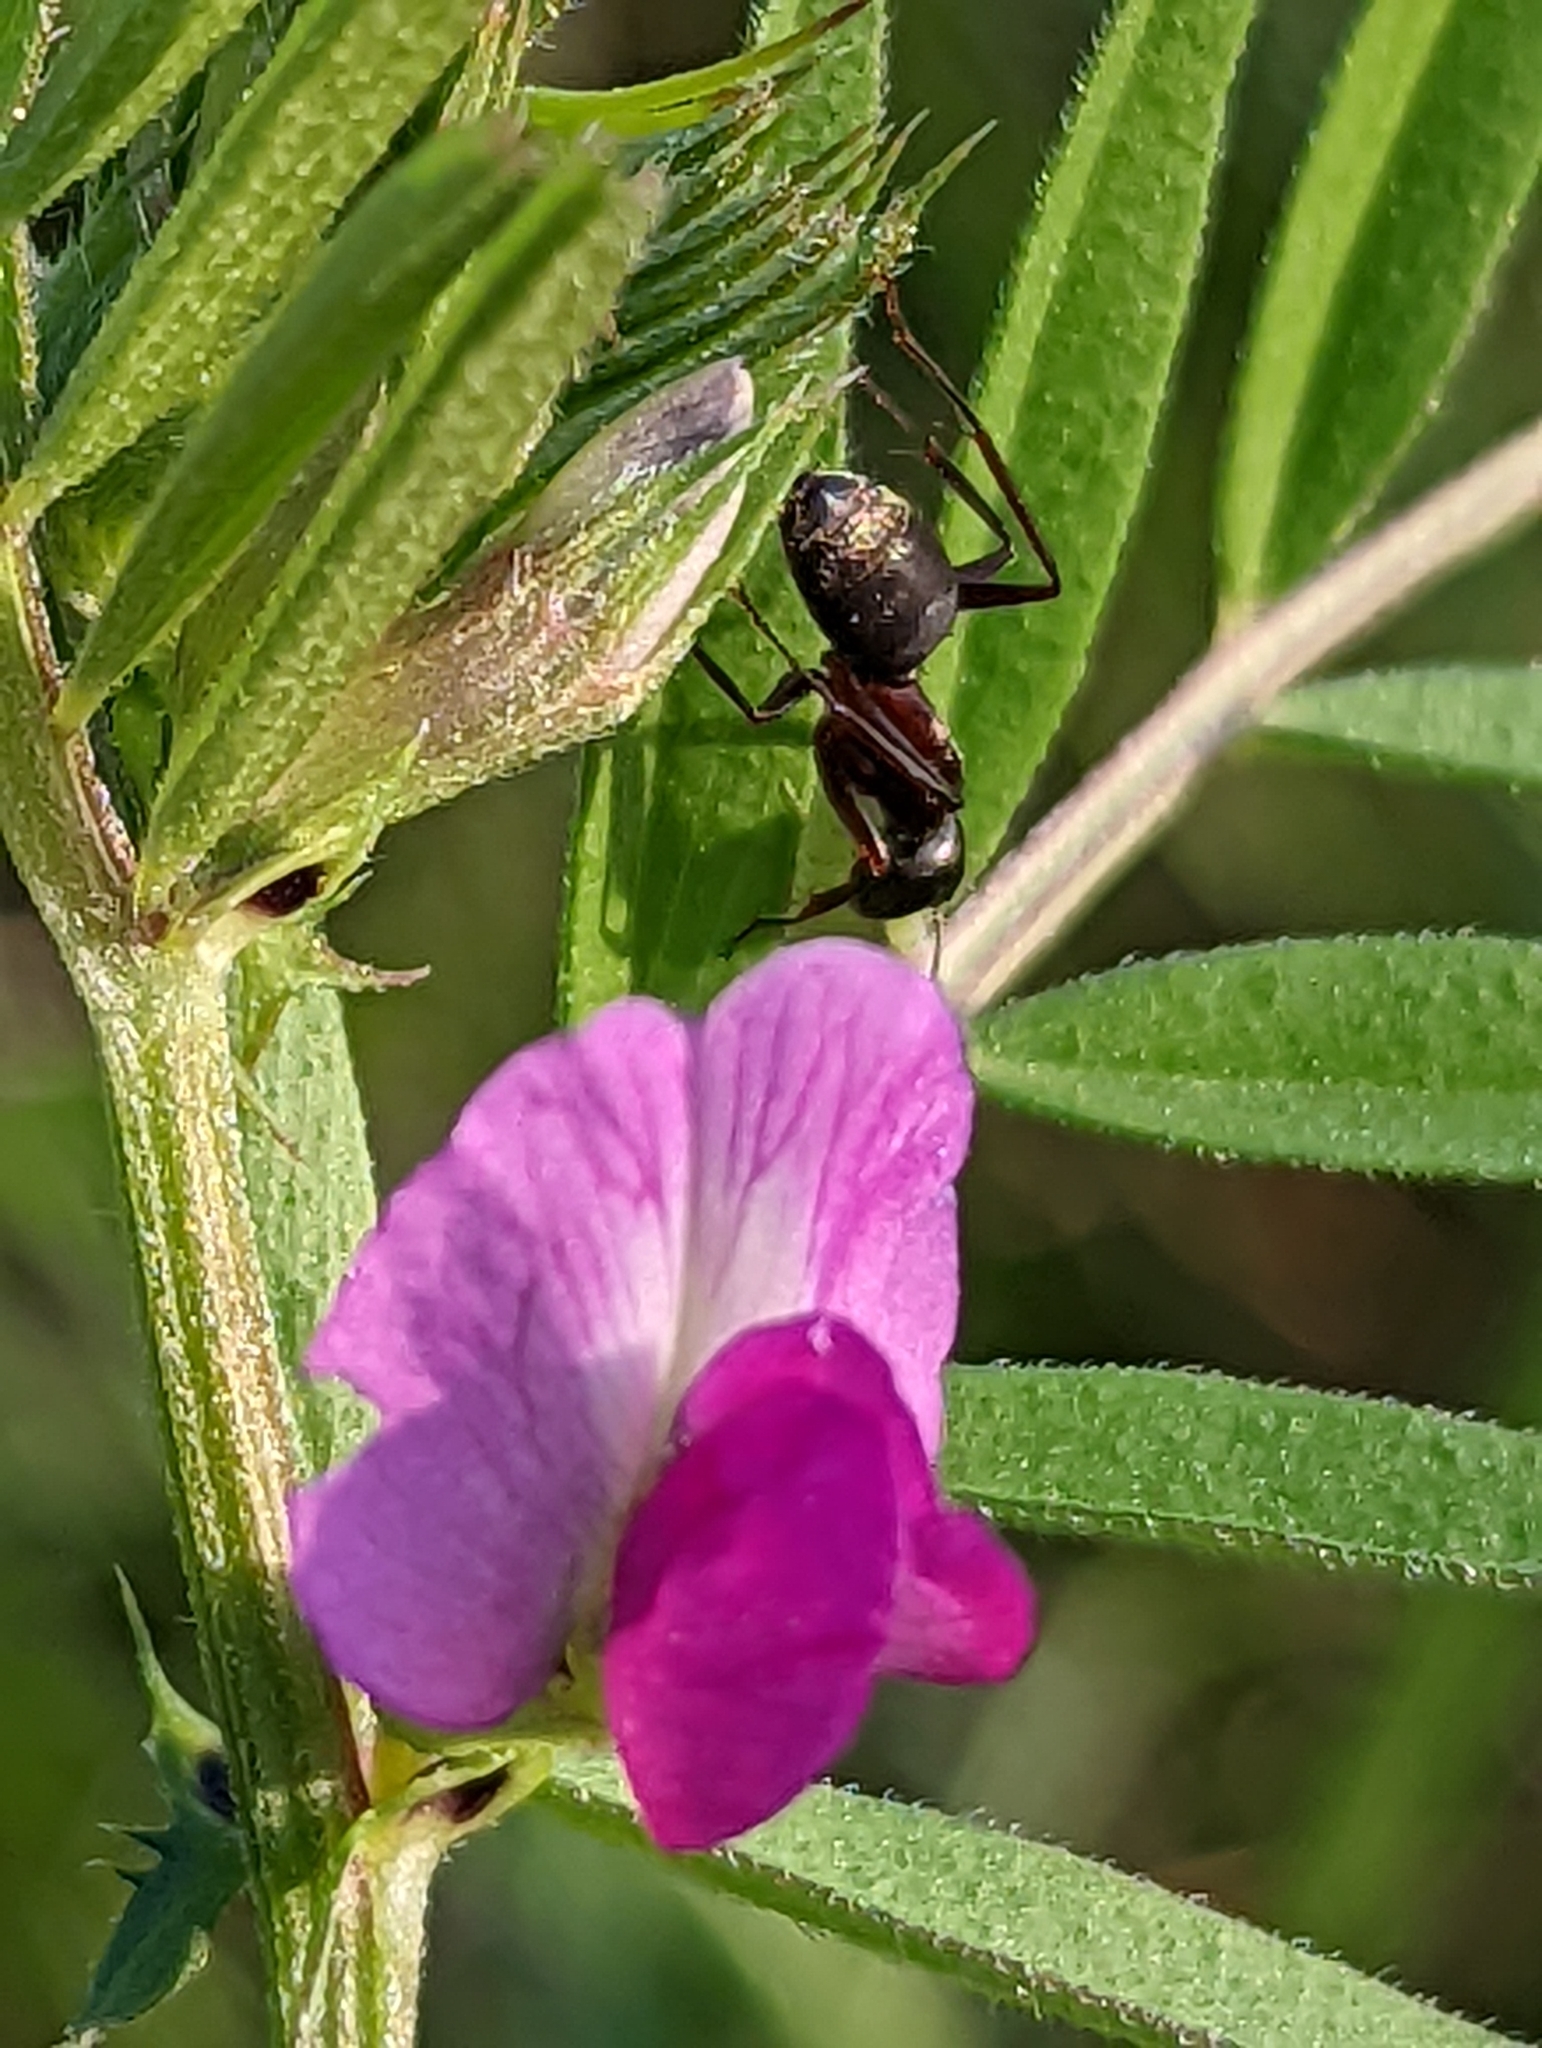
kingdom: Animalia
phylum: Arthropoda
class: Insecta
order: Hymenoptera
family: Formicidae
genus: Camponotus
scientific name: Camponotus chromaiodes
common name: Red carpenter ant
